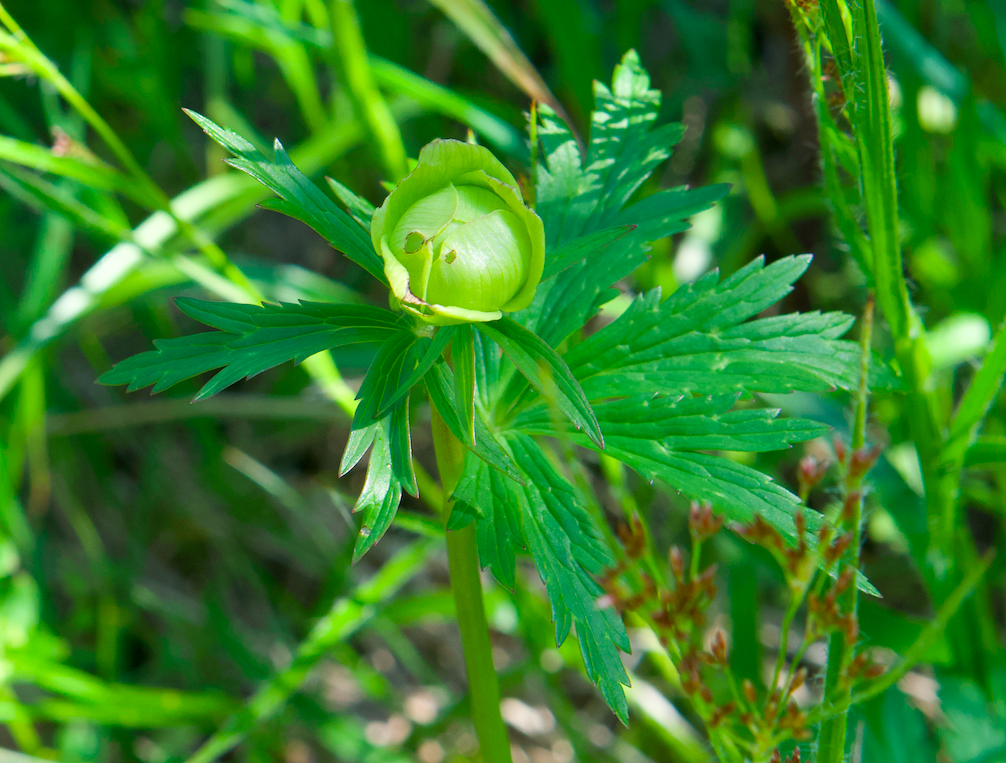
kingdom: Plantae
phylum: Tracheophyta
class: Magnoliopsida
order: Ranunculales
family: Ranunculaceae
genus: Trollius
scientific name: Trollius europaeus
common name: European globeflower
